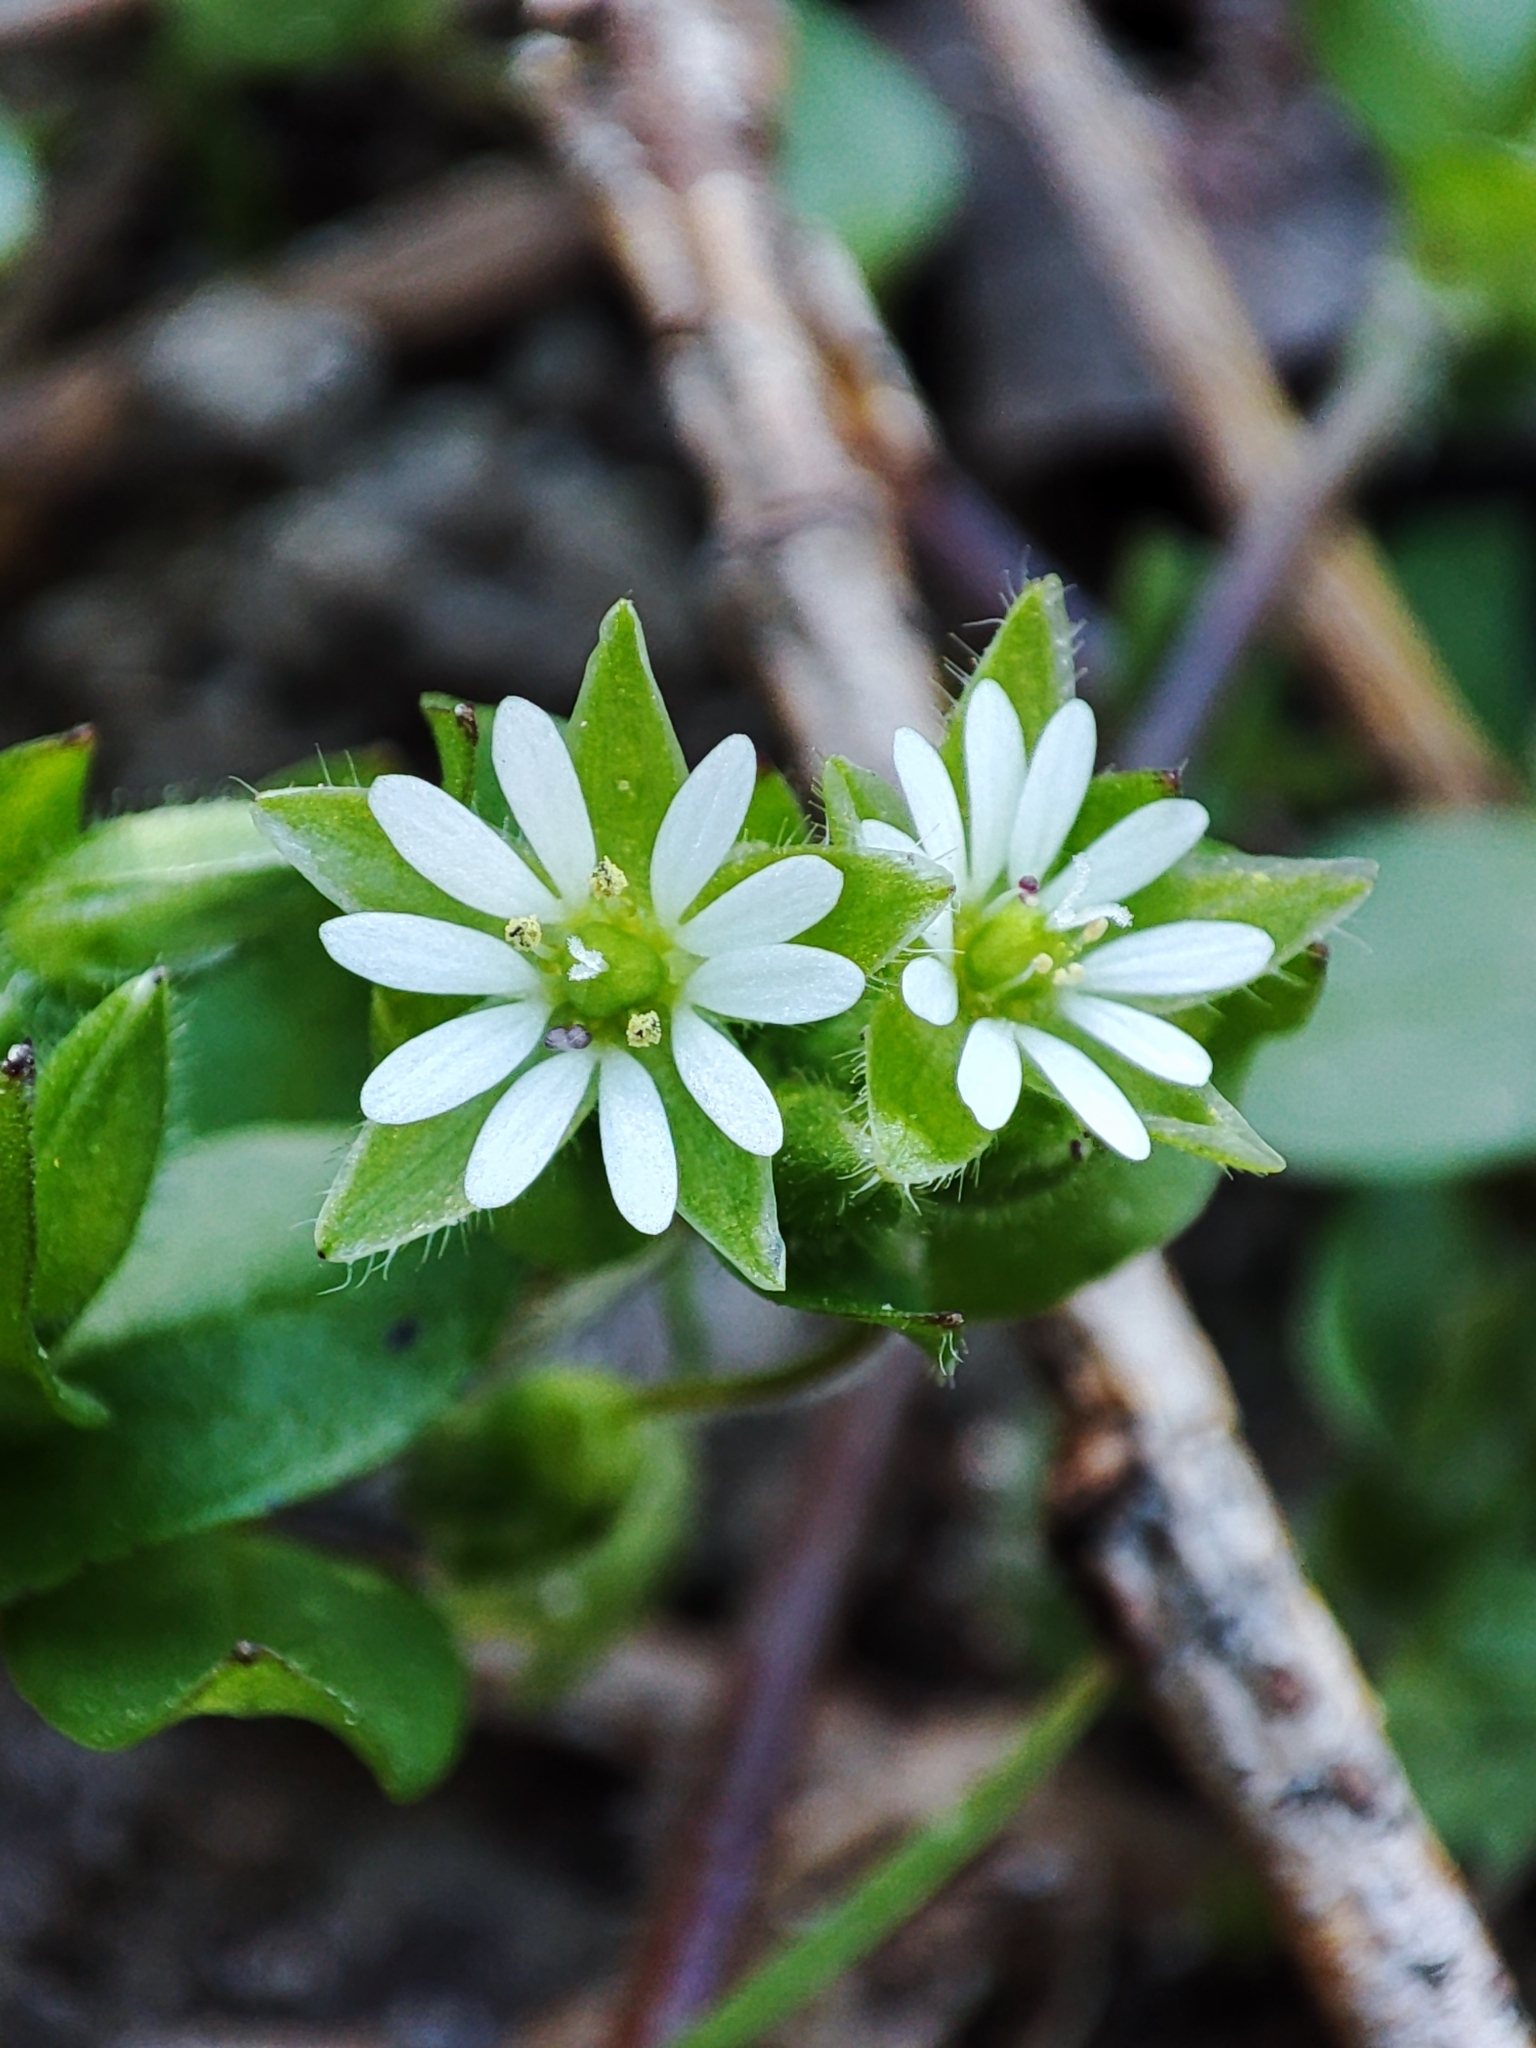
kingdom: Plantae
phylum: Tracheophyta
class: Magnoliopsida
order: Caryophyllales
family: Caryophyllaceae
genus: Stellaria
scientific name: Stellaria media
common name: Common chickweed
